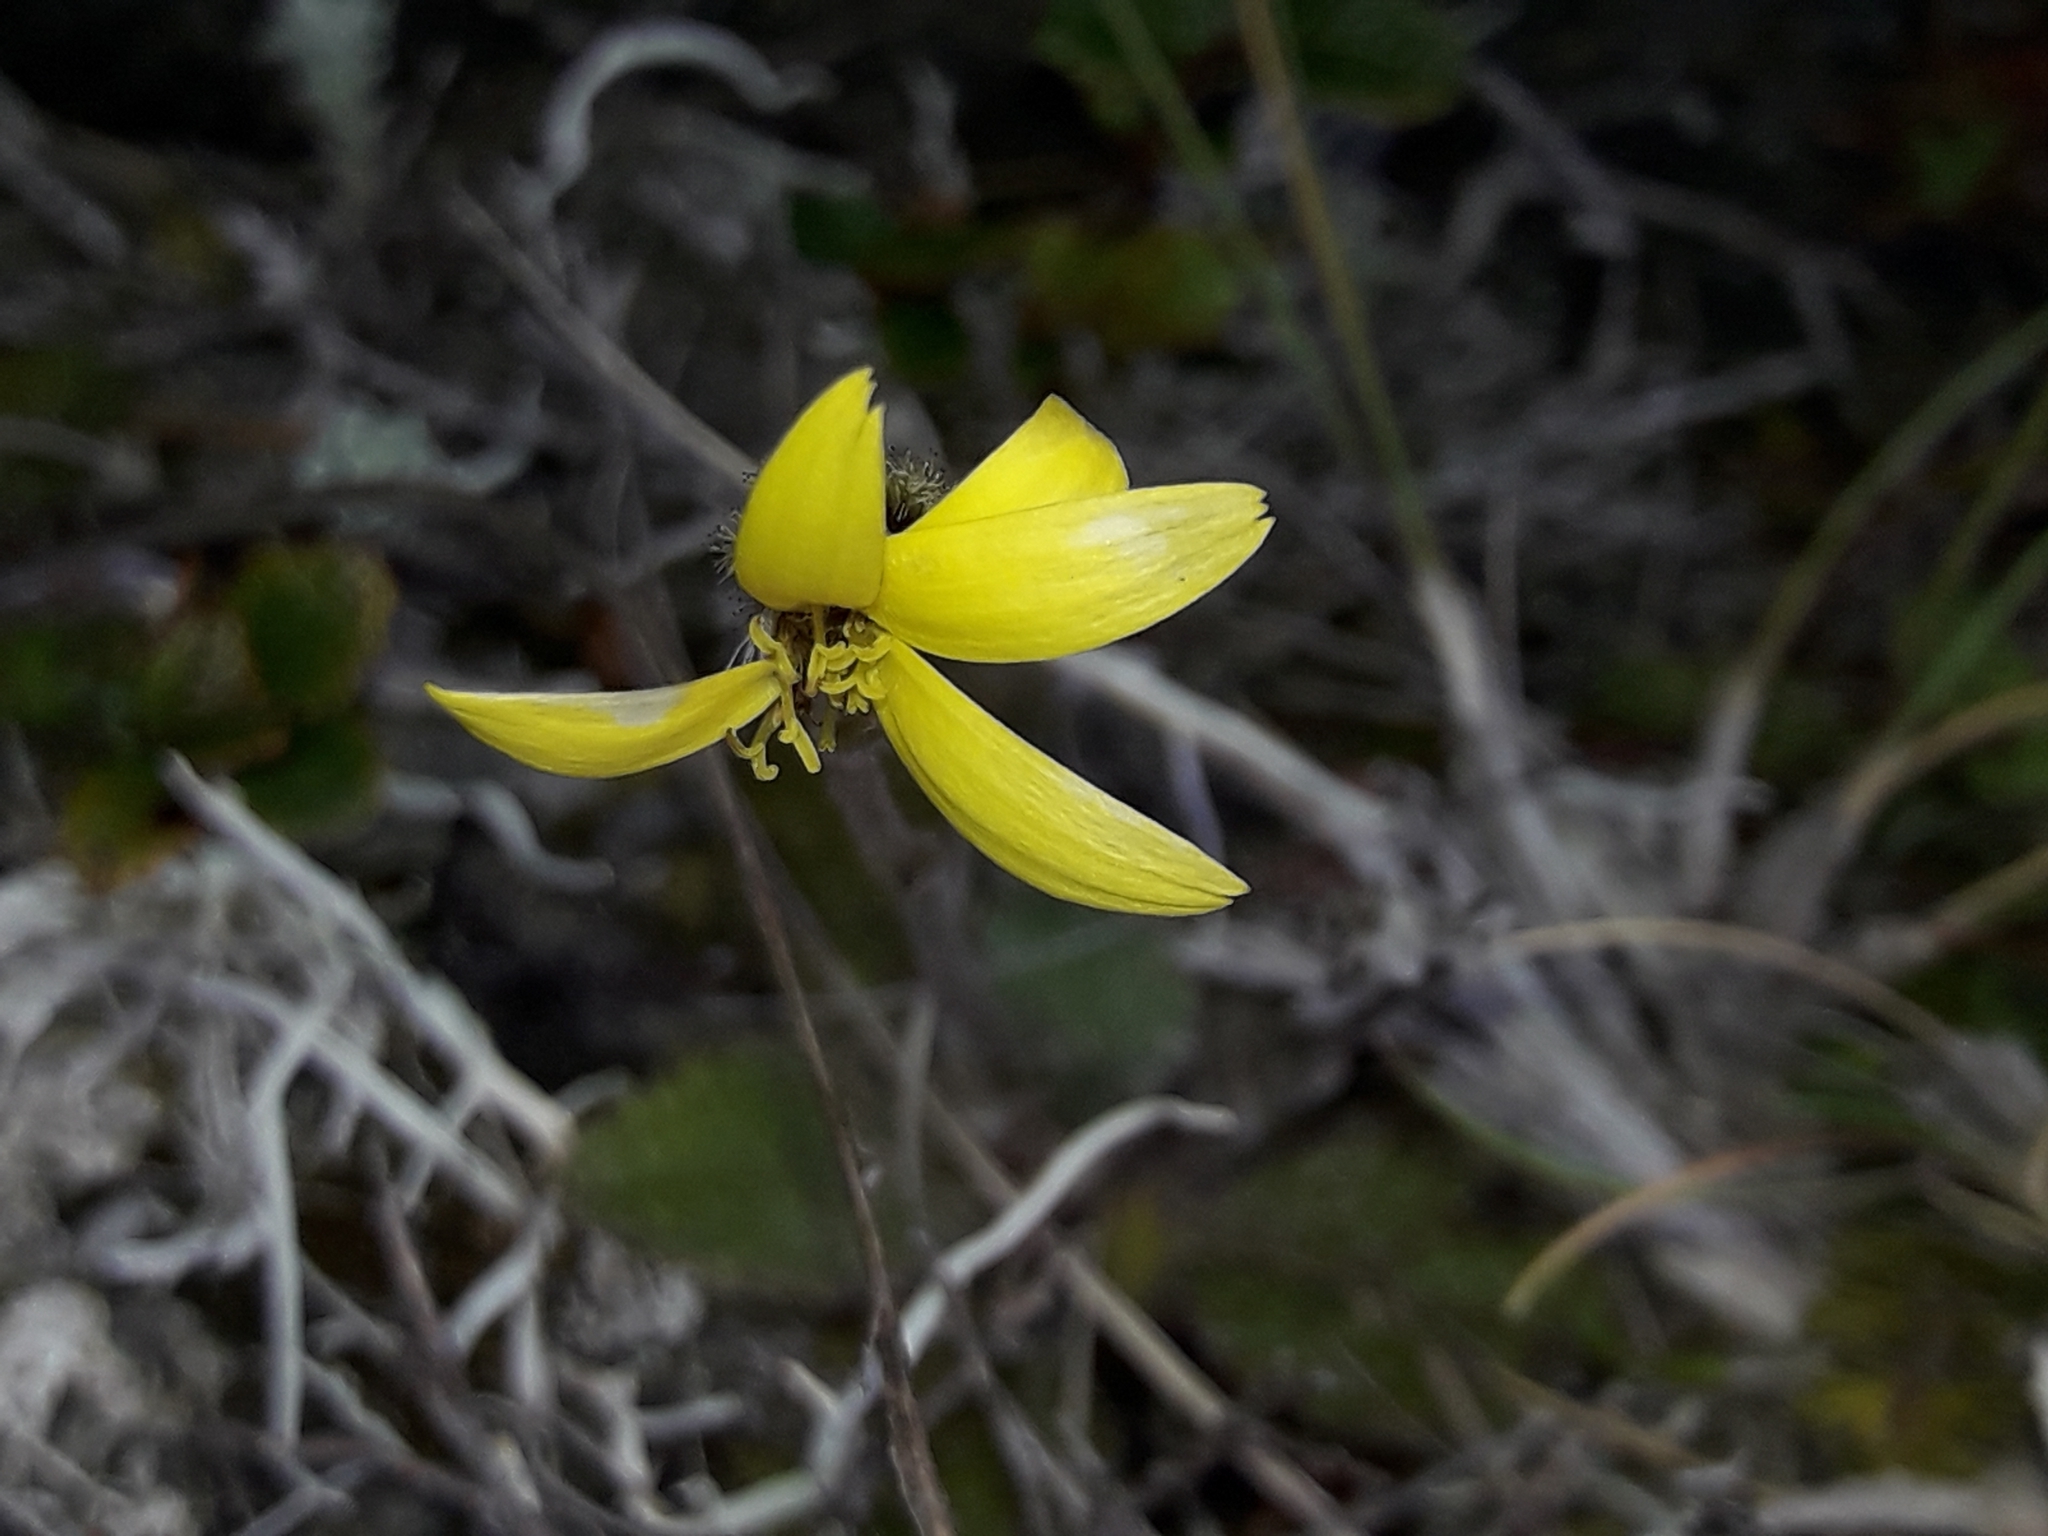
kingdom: Plantae
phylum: Tracheophyta
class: Magnoliopsida
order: Asterales
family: Asteraceae
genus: Brachyglottis
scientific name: Brachyglottis bellidioides
